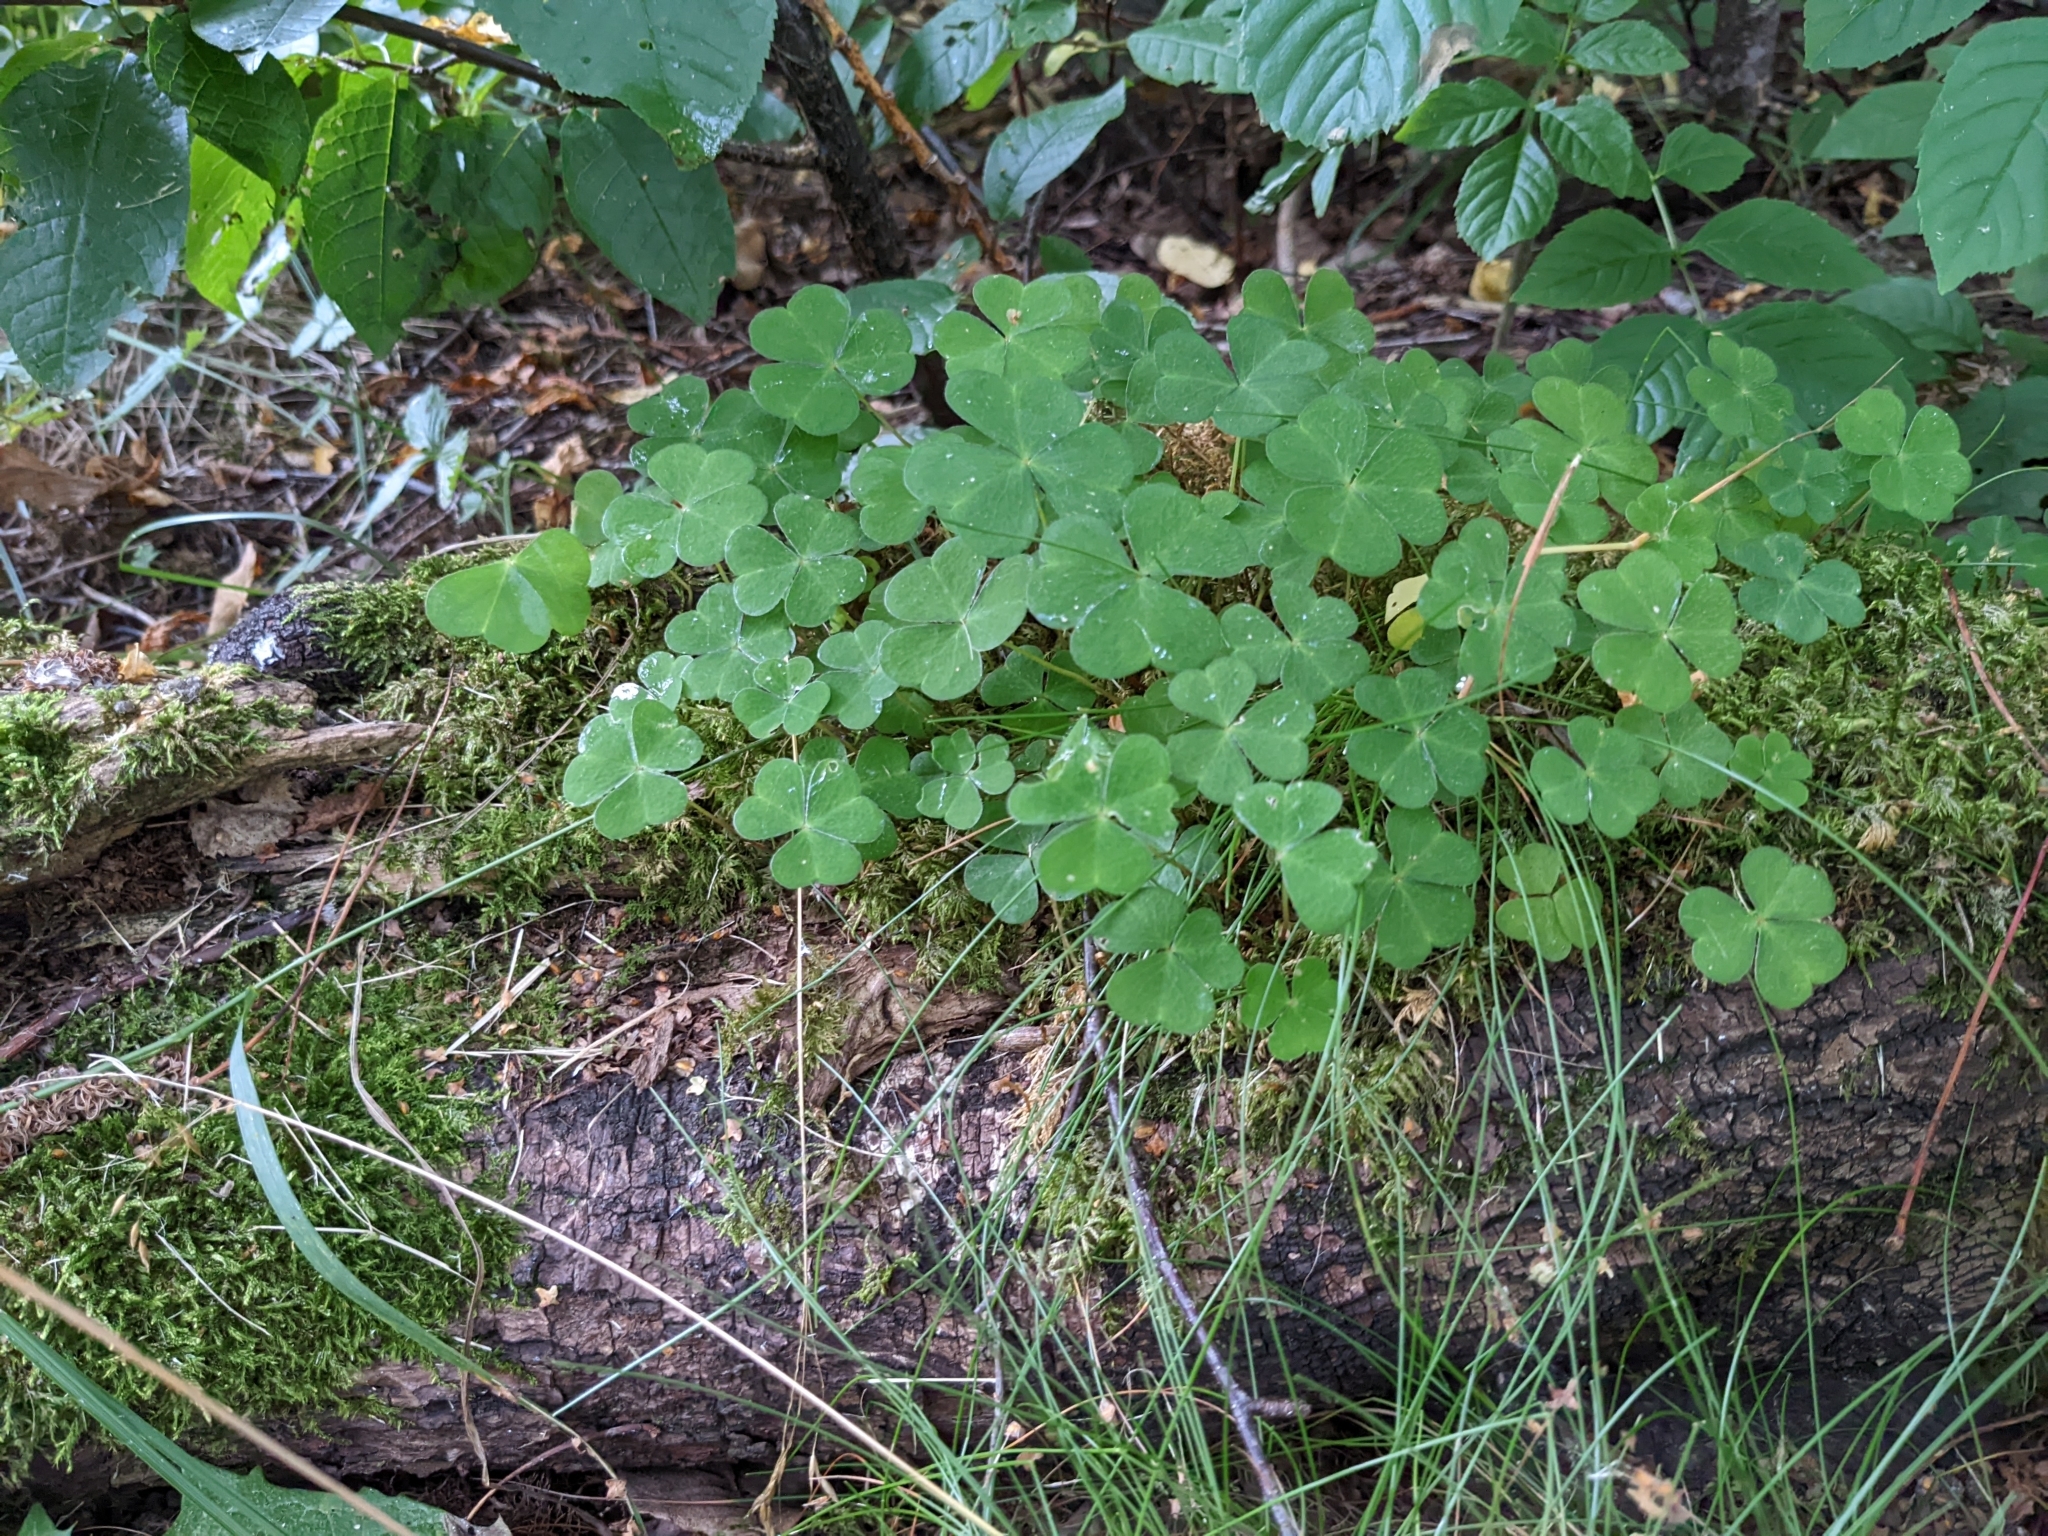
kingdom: Plantae
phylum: Tracheophyta
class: Magnoliopsida
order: Oxalidales
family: Oxalidaceae
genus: Oxalis
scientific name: Oxalis acetosella
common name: Wood-sorrel
